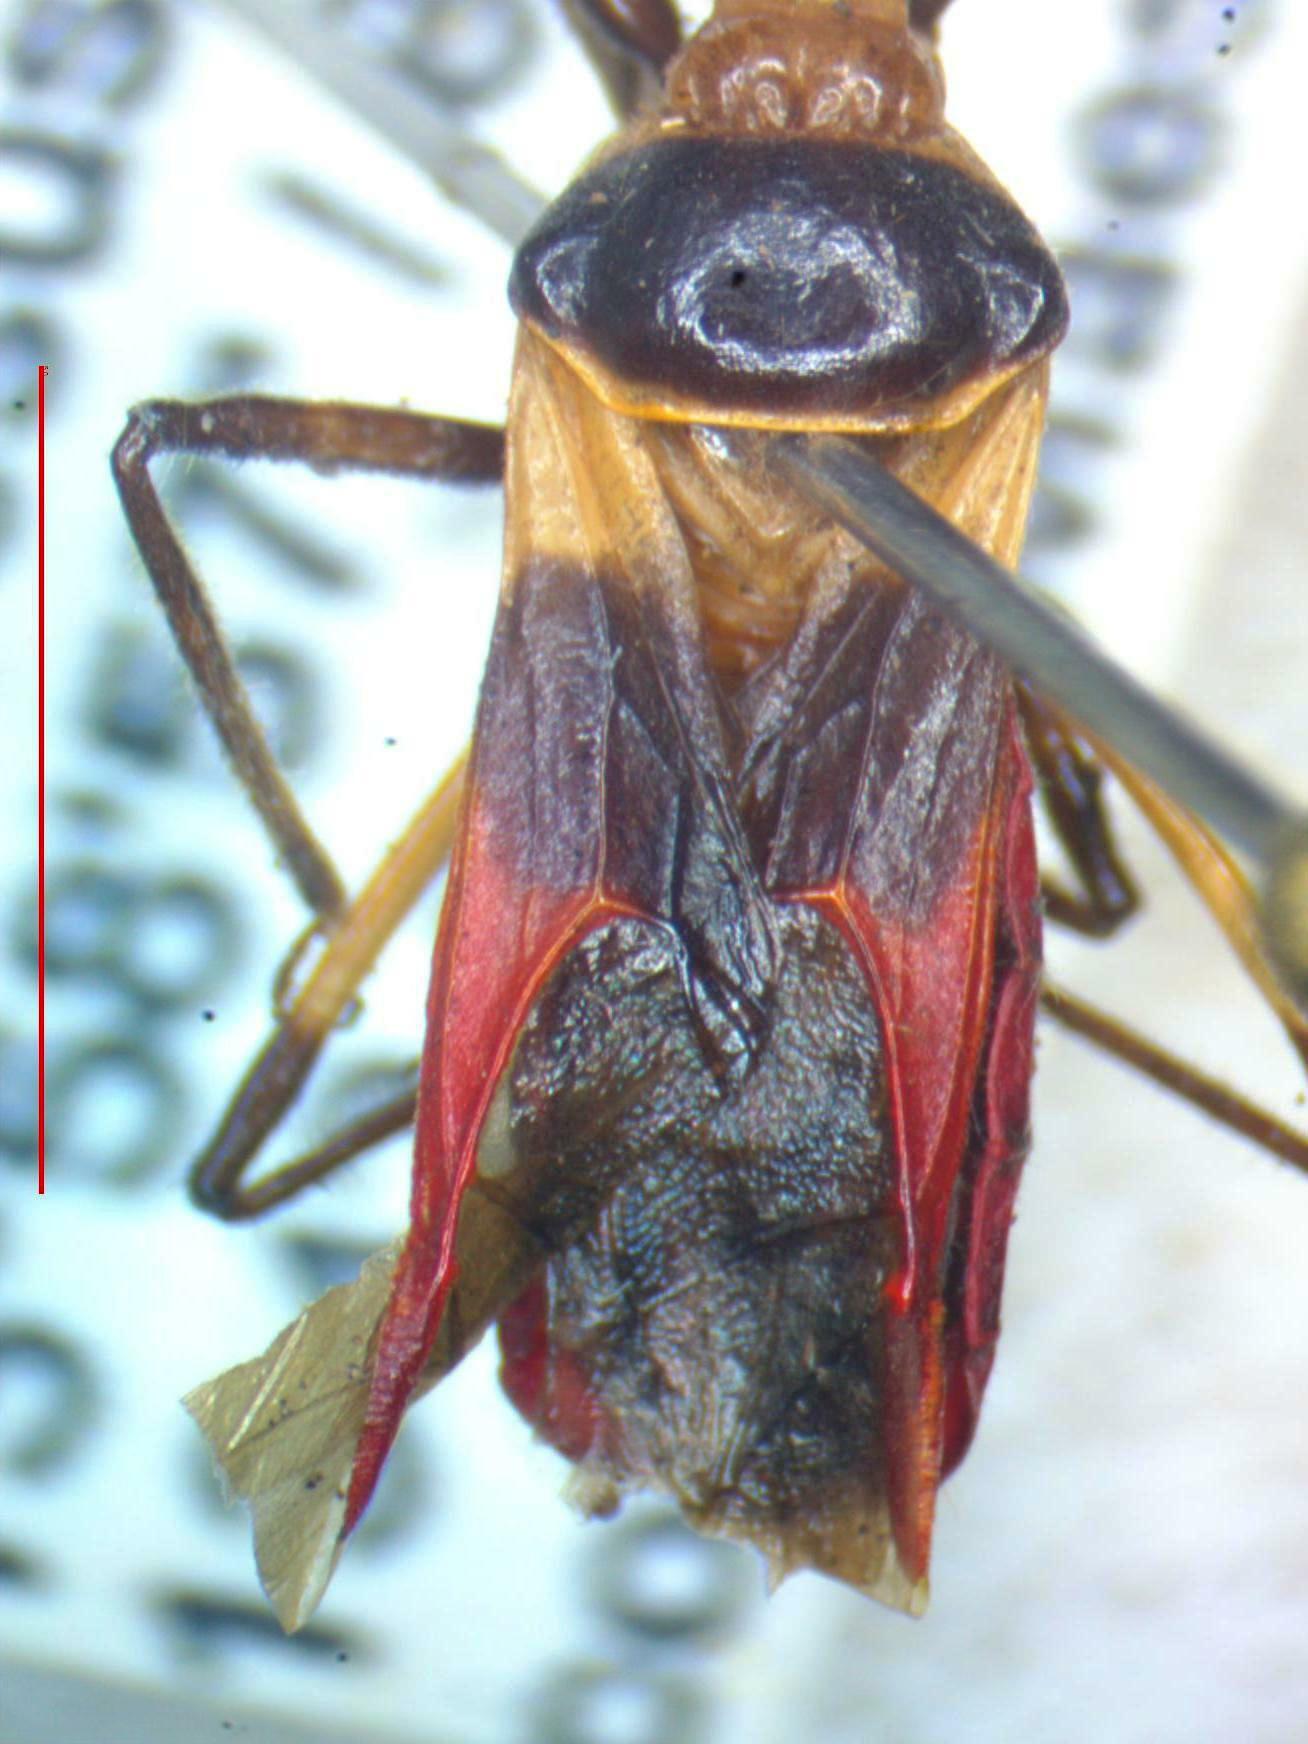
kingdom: Animalia
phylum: Arthropoda
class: Insecta
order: Hemiptera
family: Reduviidae
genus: Castolus
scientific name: Castolus tricolor
